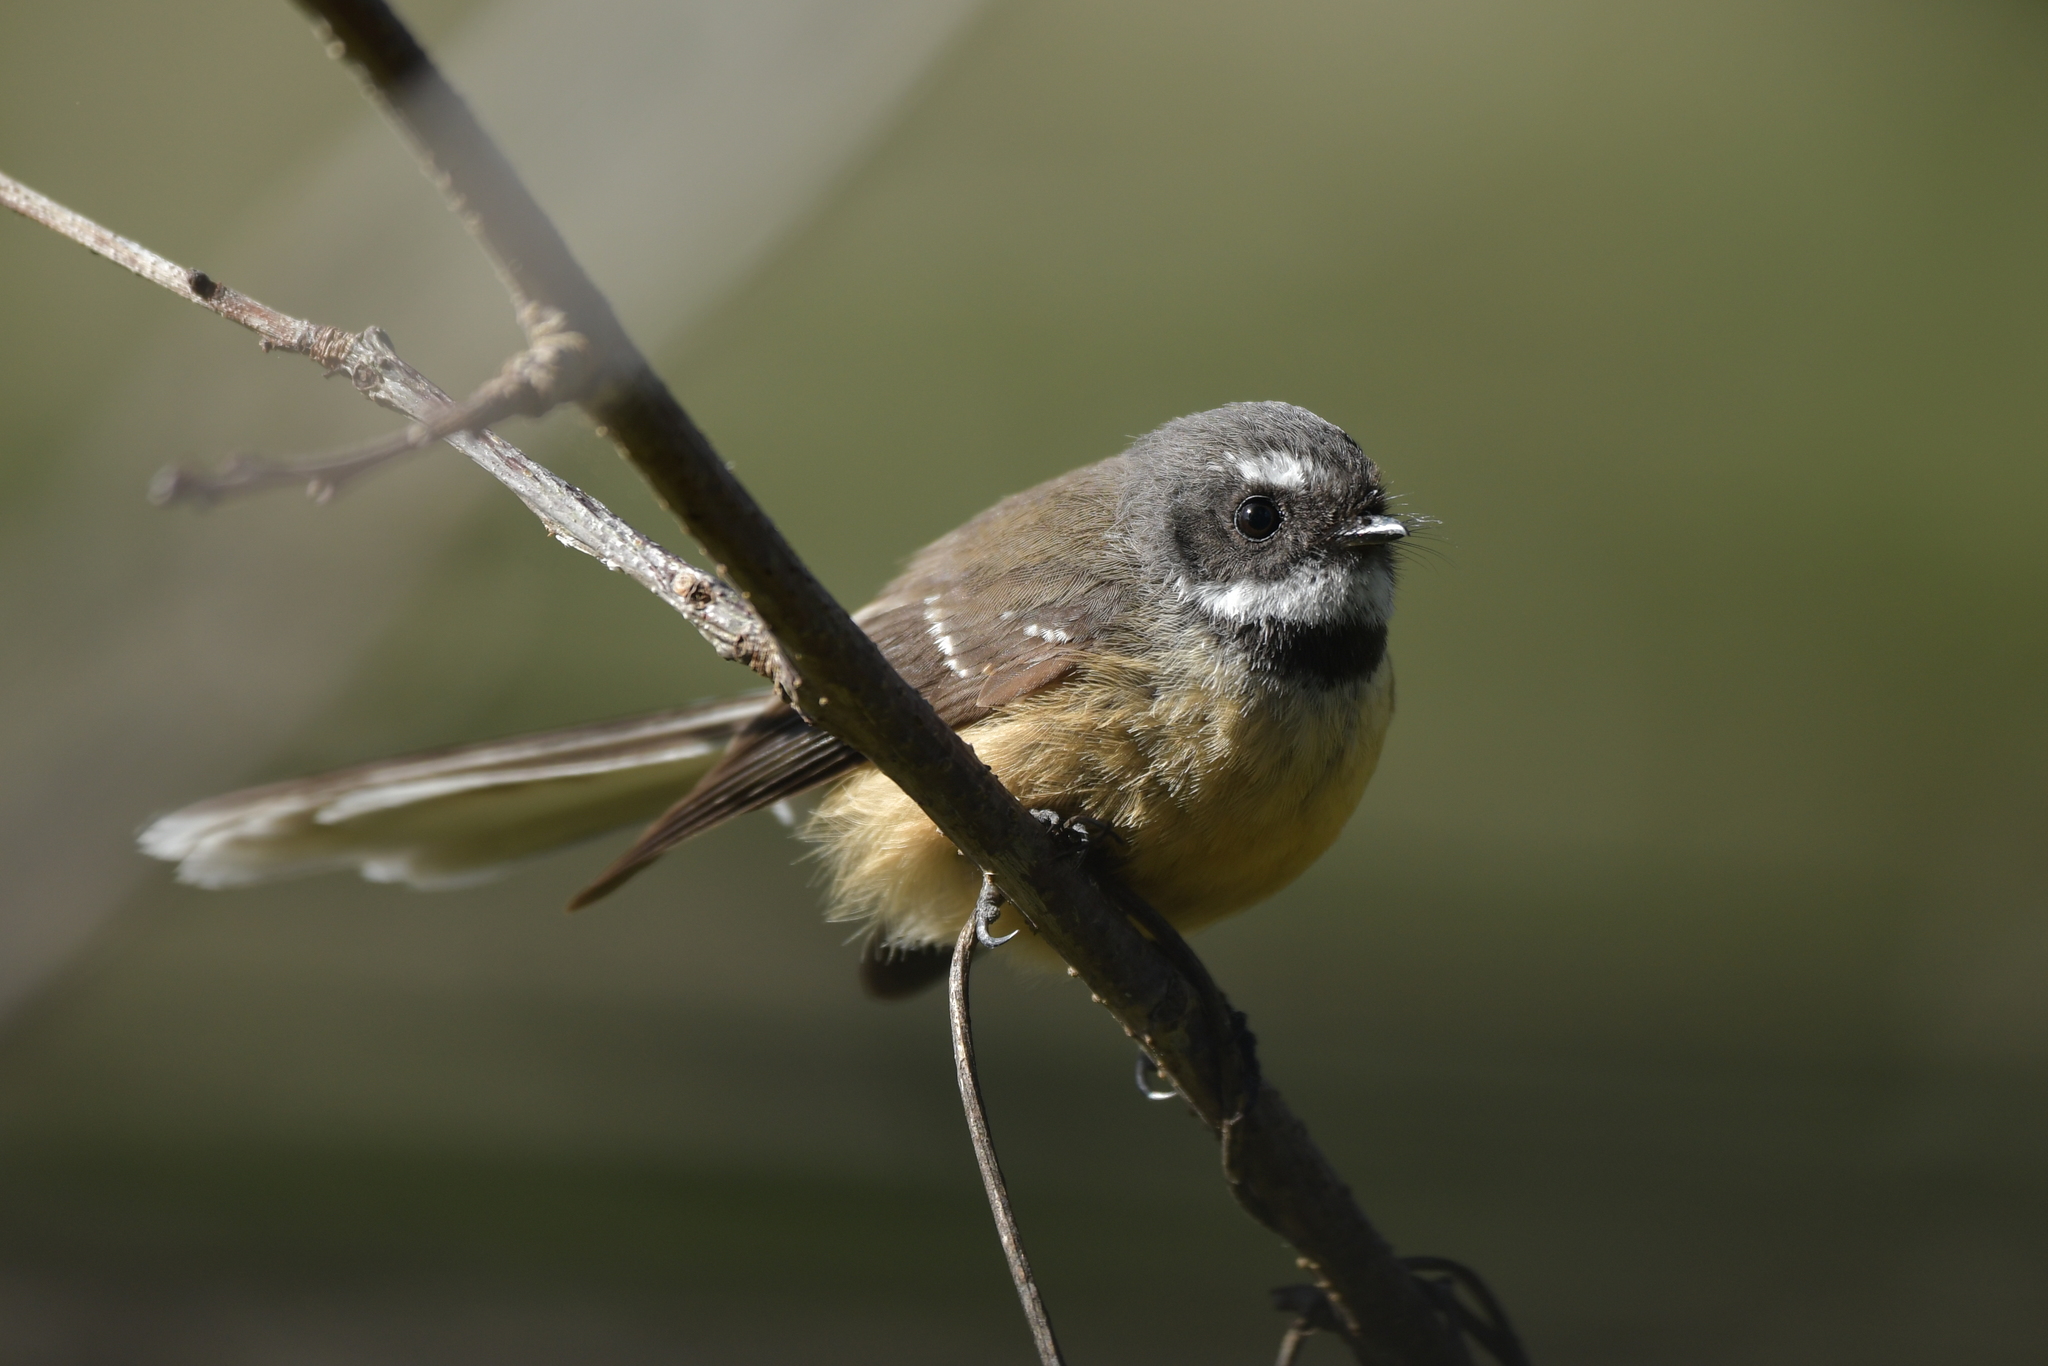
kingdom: Animalia
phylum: Chordata
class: Aves
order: Passeriformes
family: Rhipiduridae
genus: Rhipidura
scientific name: Rhipidura fuliginosa
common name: New zealand fantail
